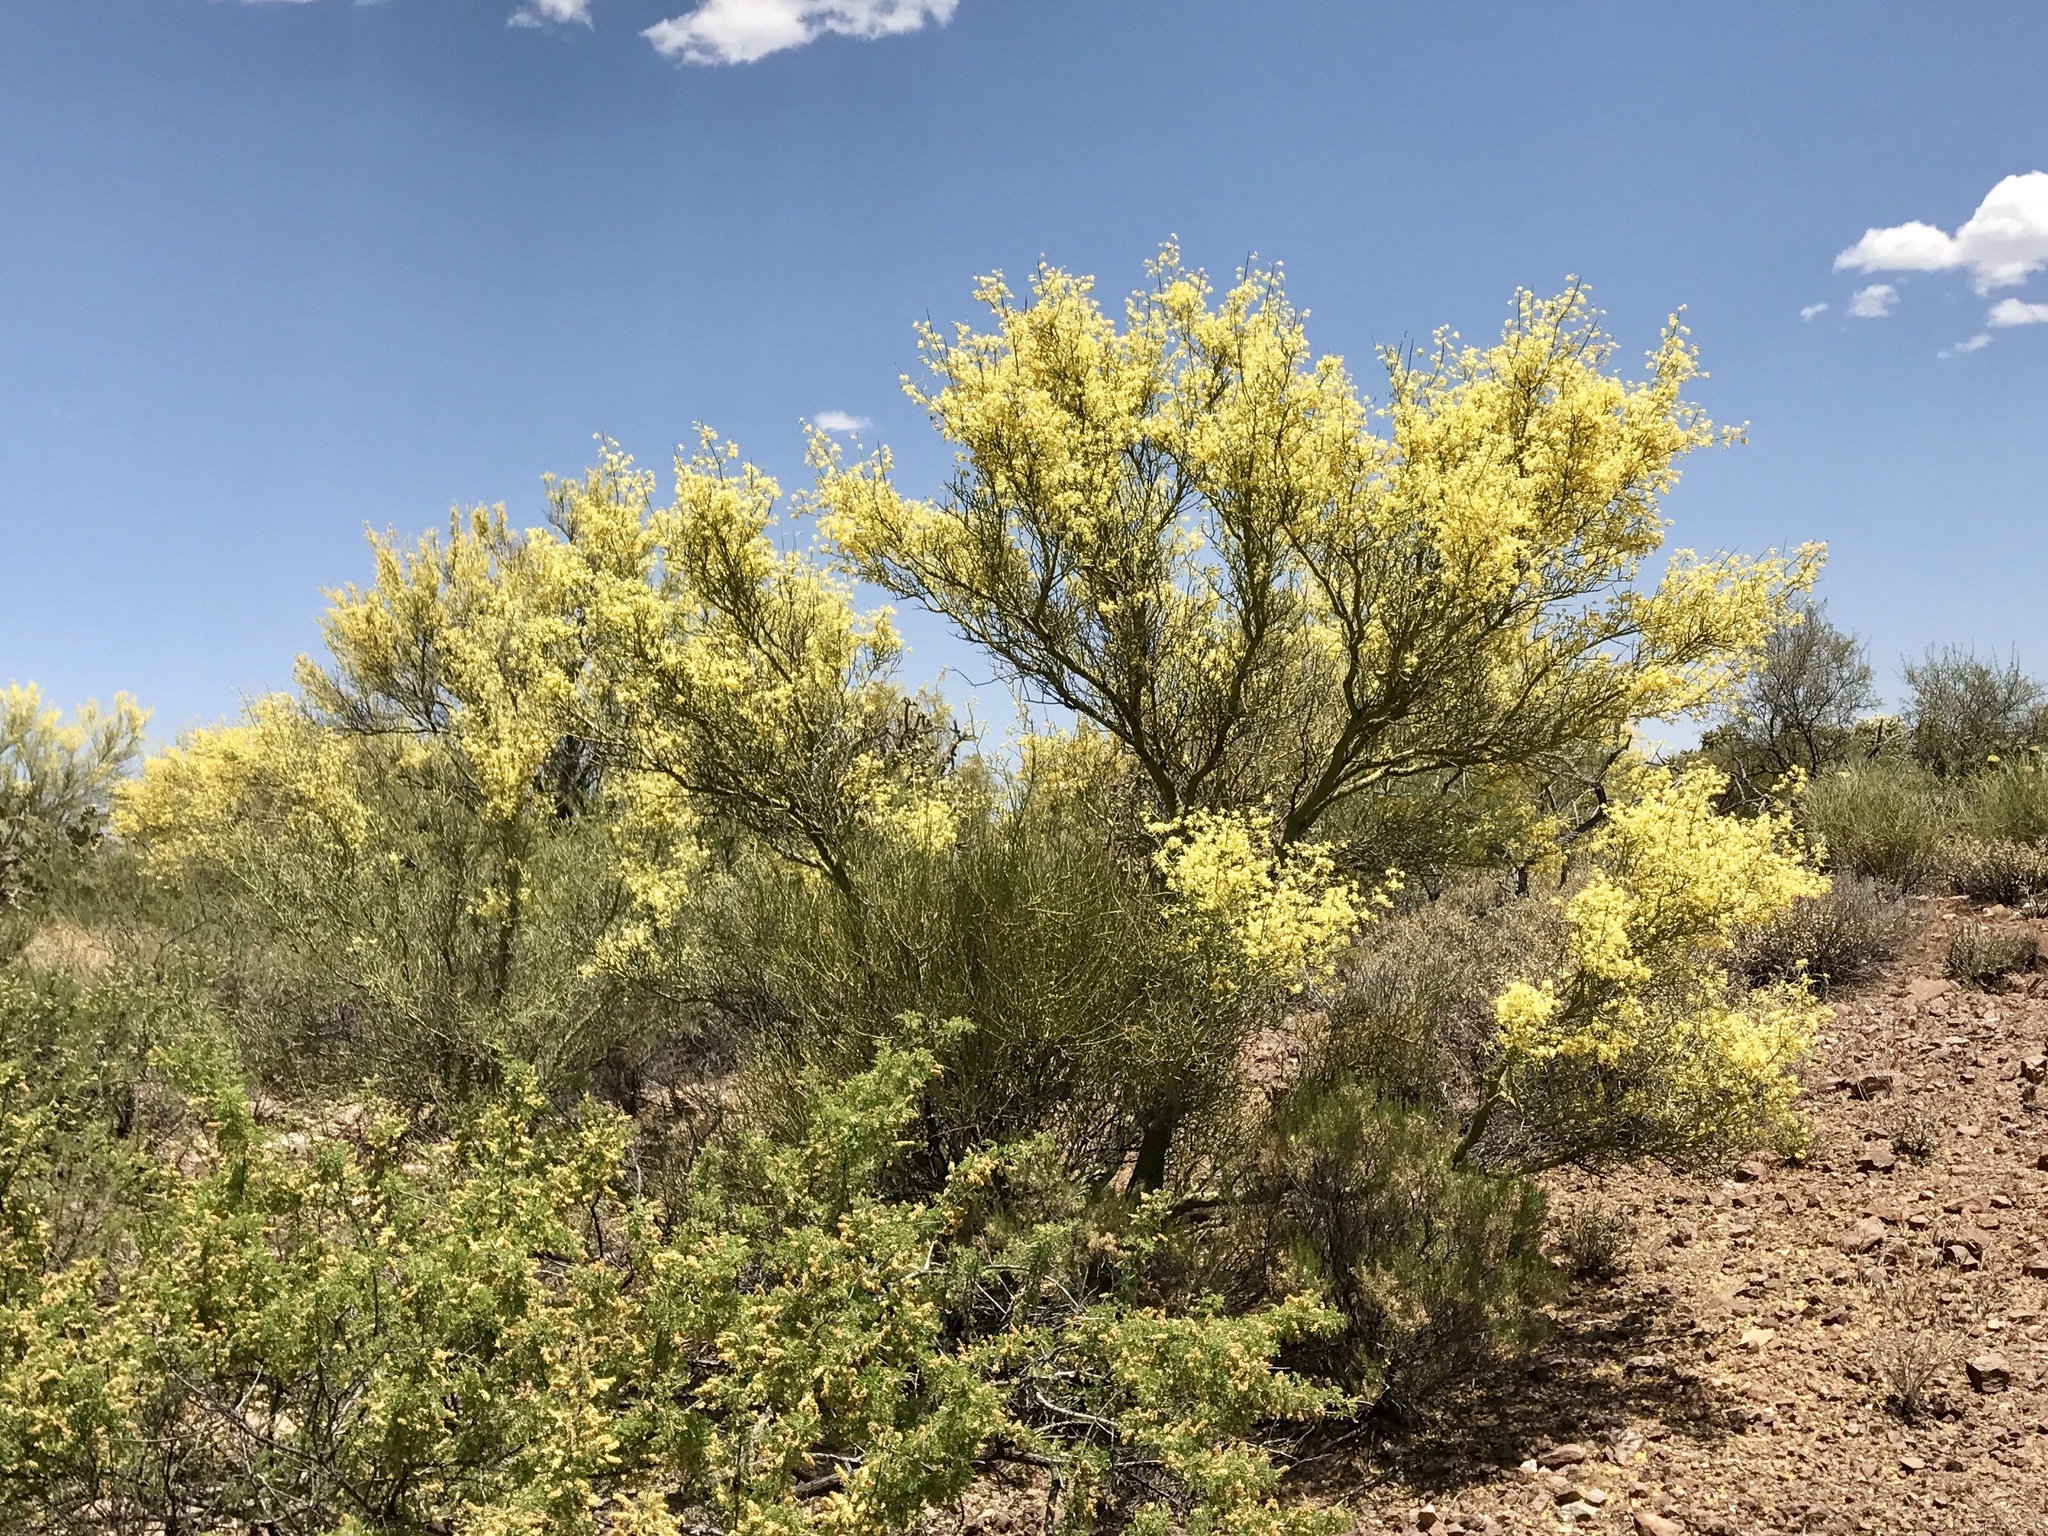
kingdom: Plantae
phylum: Tracheophyta
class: Magnoliopsida
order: Fabales
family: Fabaceae
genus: Parkinsonia
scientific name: Parkinsonia microphylla
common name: Yellow paloverde
